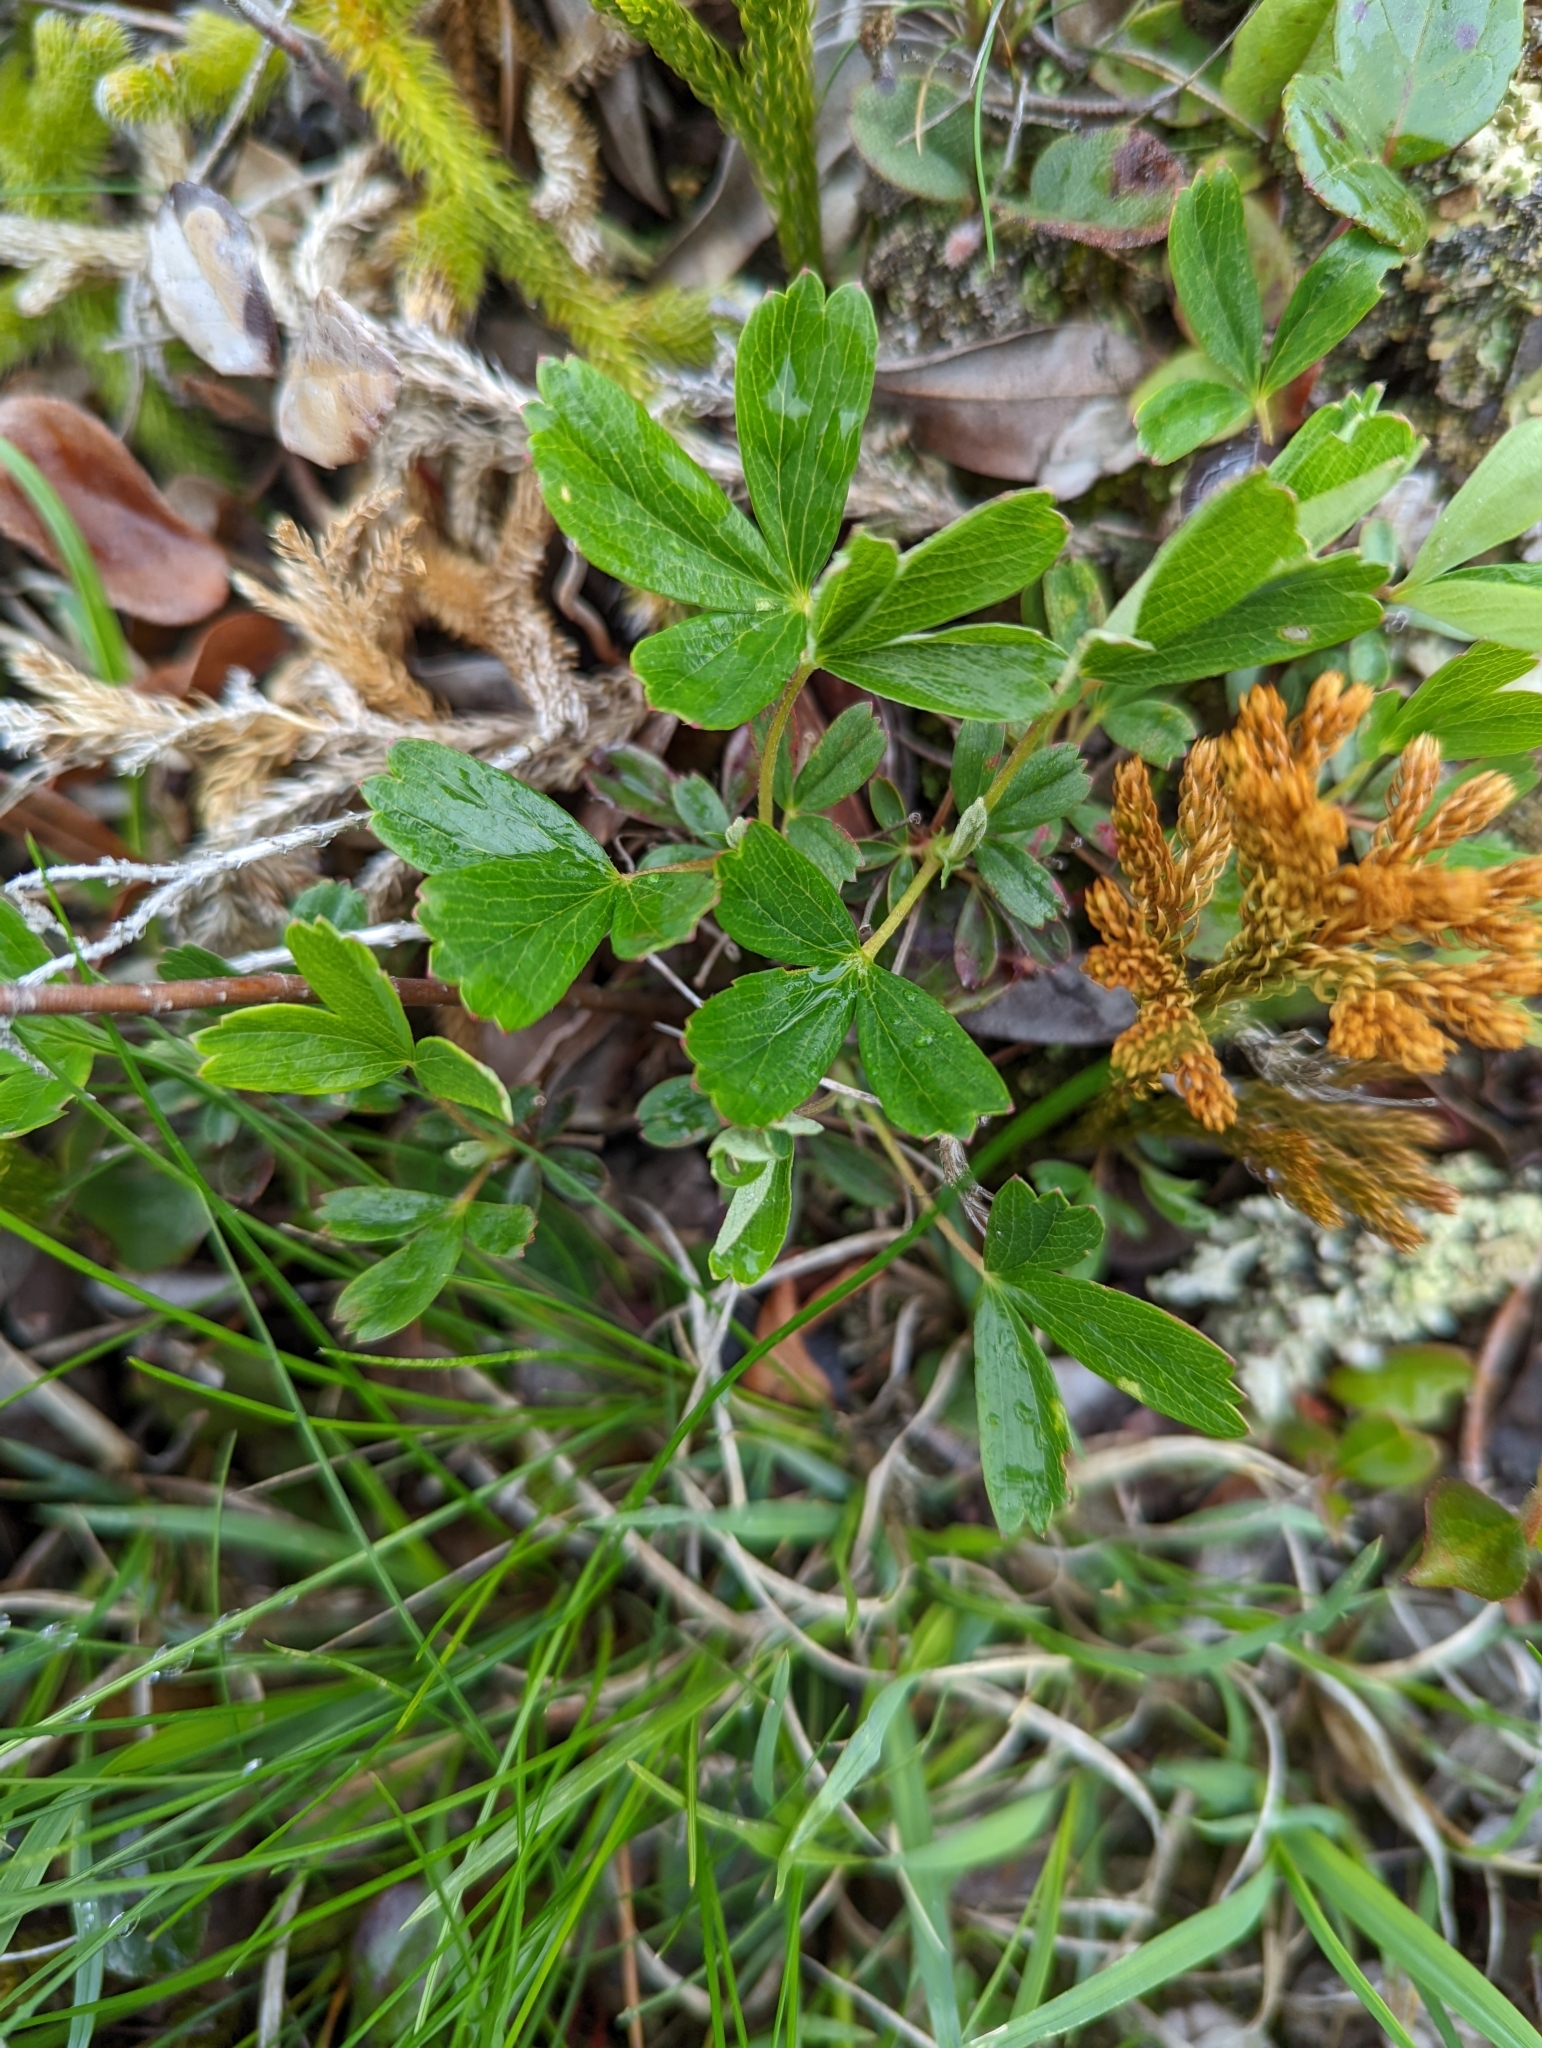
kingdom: Plantae
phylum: Tracheophyta
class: Magnoliopsida
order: Rosales
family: Rosaceae
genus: Sibbaldia
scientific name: Sibbaldia tridentata
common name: Three-toothed cinquefoil
